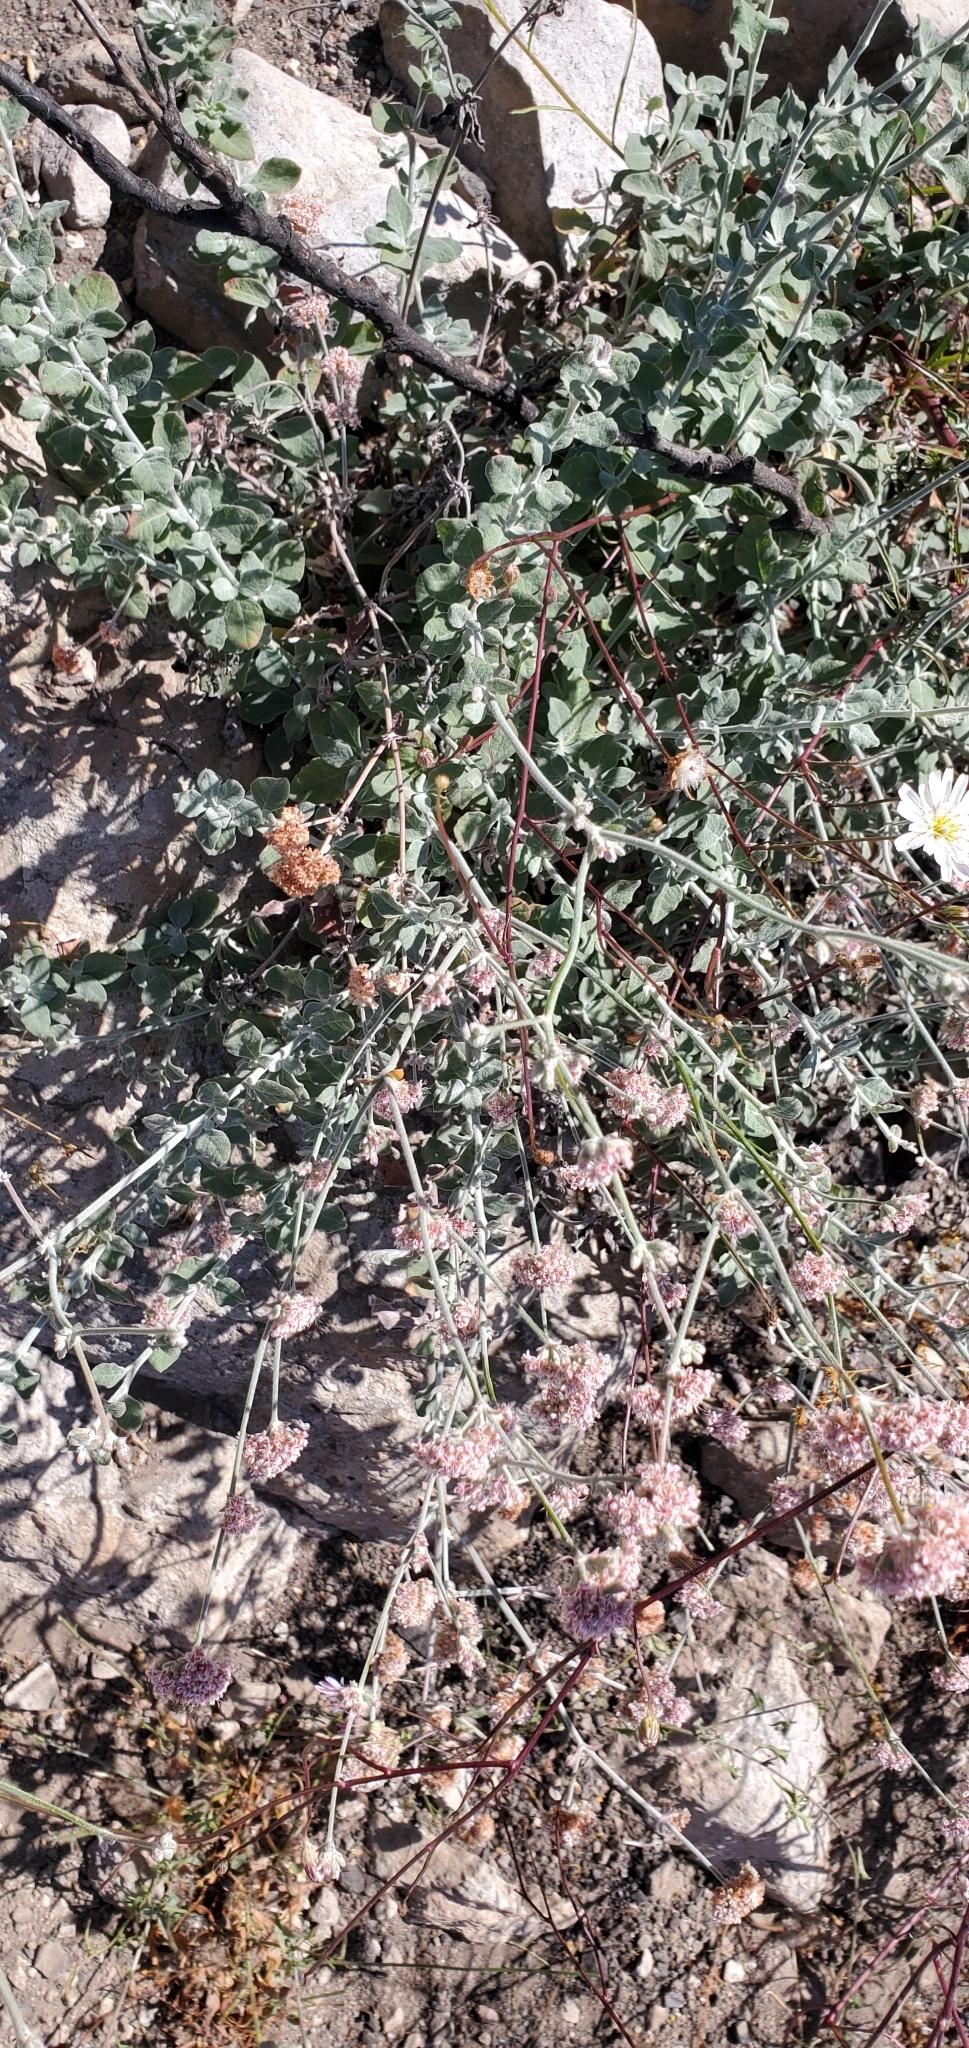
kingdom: Plantae
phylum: Tracheophyta
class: Magnoliopsida
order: Caryophyllales
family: Polygonaceae
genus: Eriogonum
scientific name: Eriogonum cinereum
